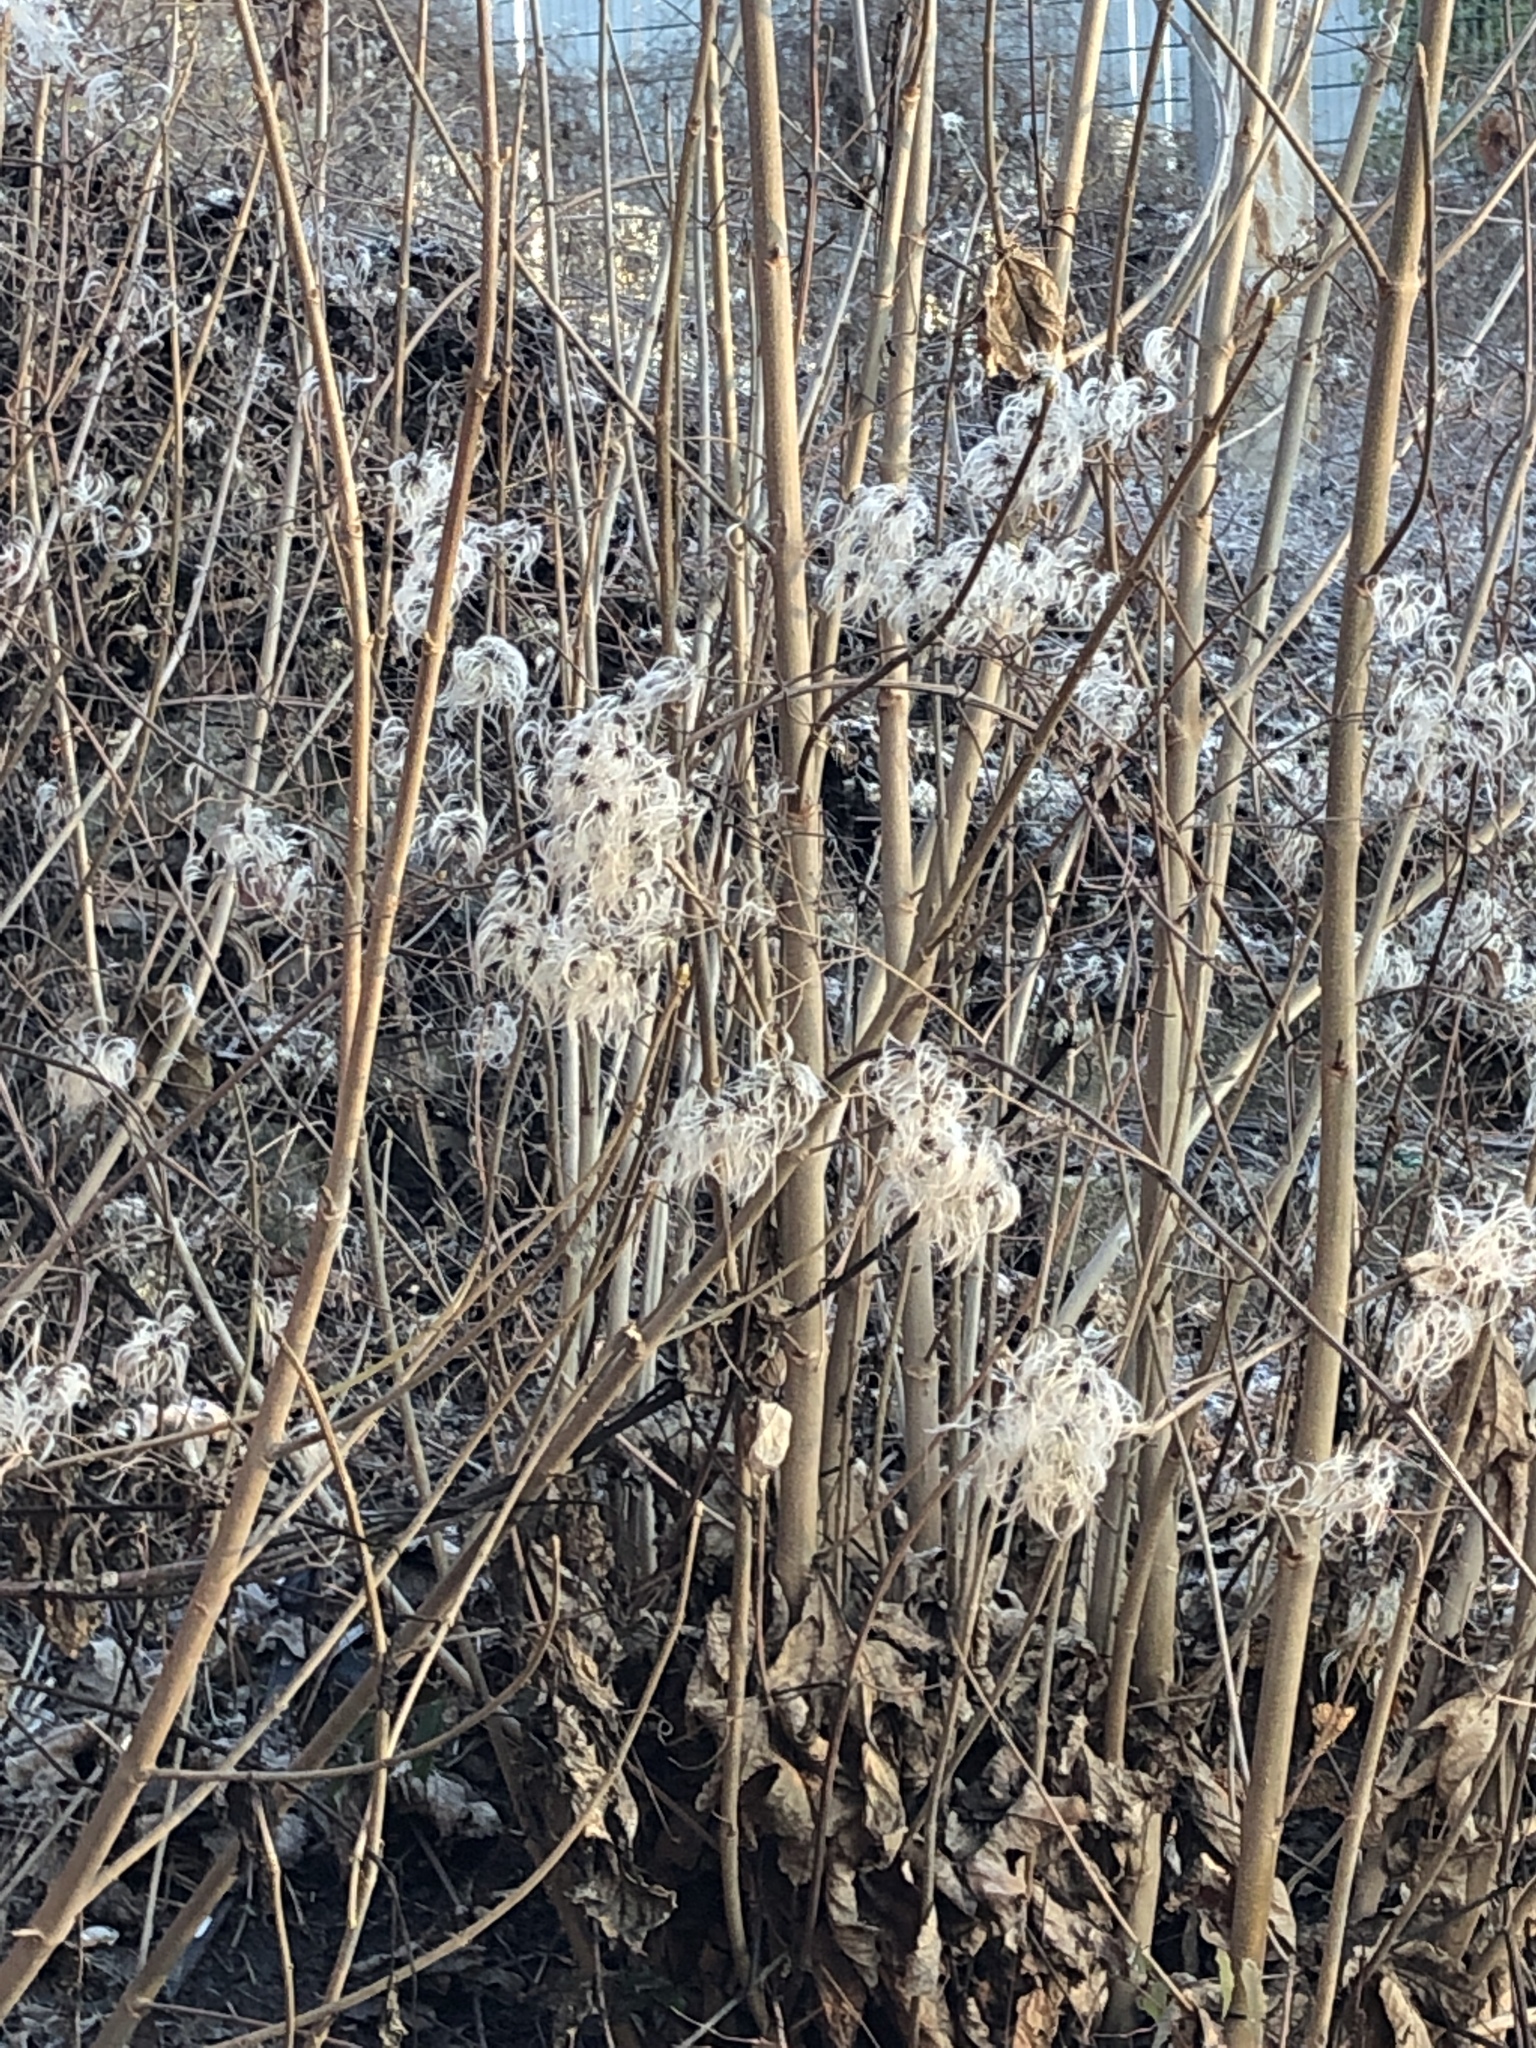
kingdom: Plantae
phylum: Tracheophyta
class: Magnoliopsida
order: Ranunculales
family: Ranunculaceae
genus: Clematis
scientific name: Clematis vitalba
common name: Evergreen clematis
